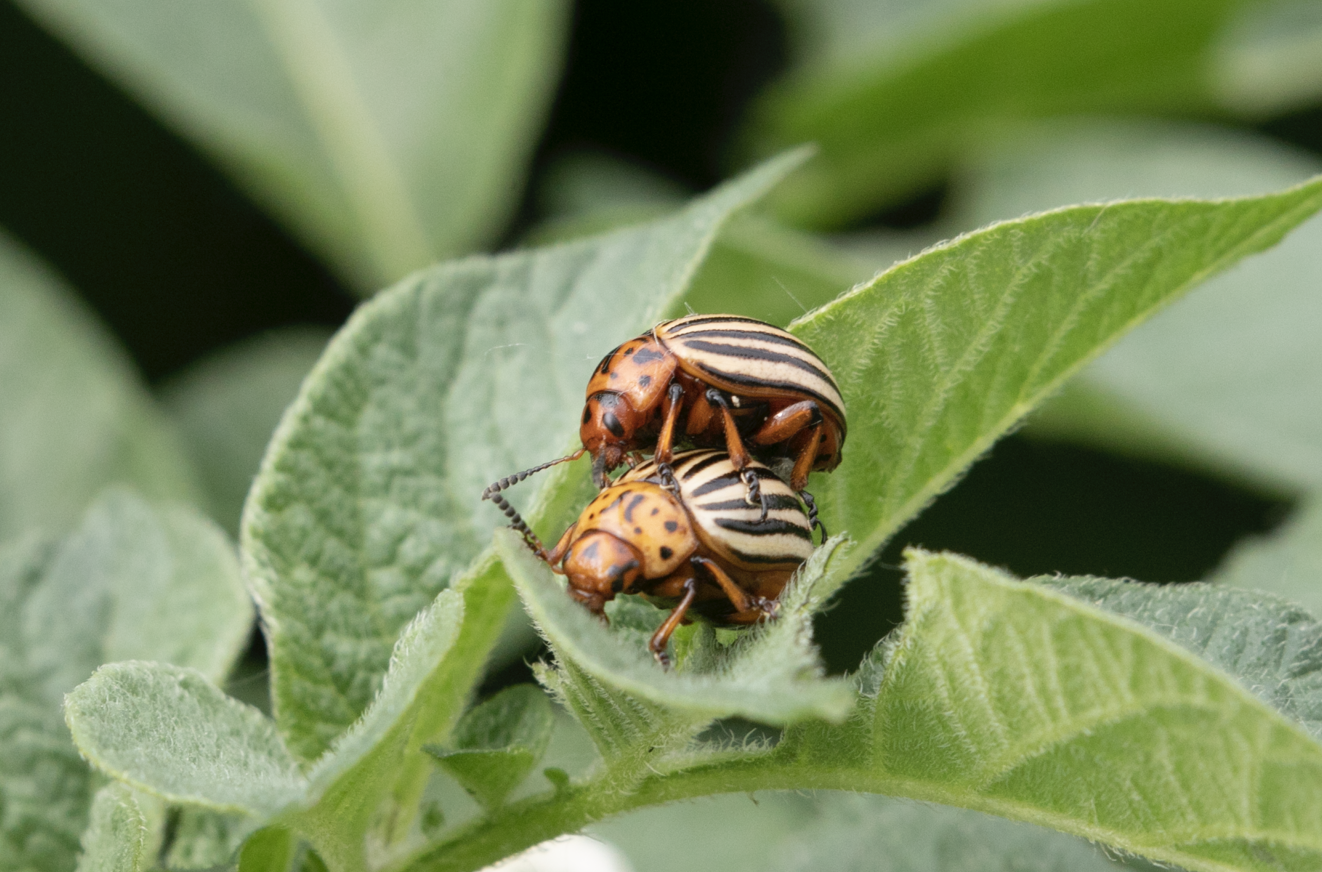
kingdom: Animalia
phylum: Arthropoda
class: Insecta
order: Coleoptera
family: Chrysomelidae
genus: Leptinotarsa
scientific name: Leptinotarsa decemlineata
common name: Colorado potato beetle
